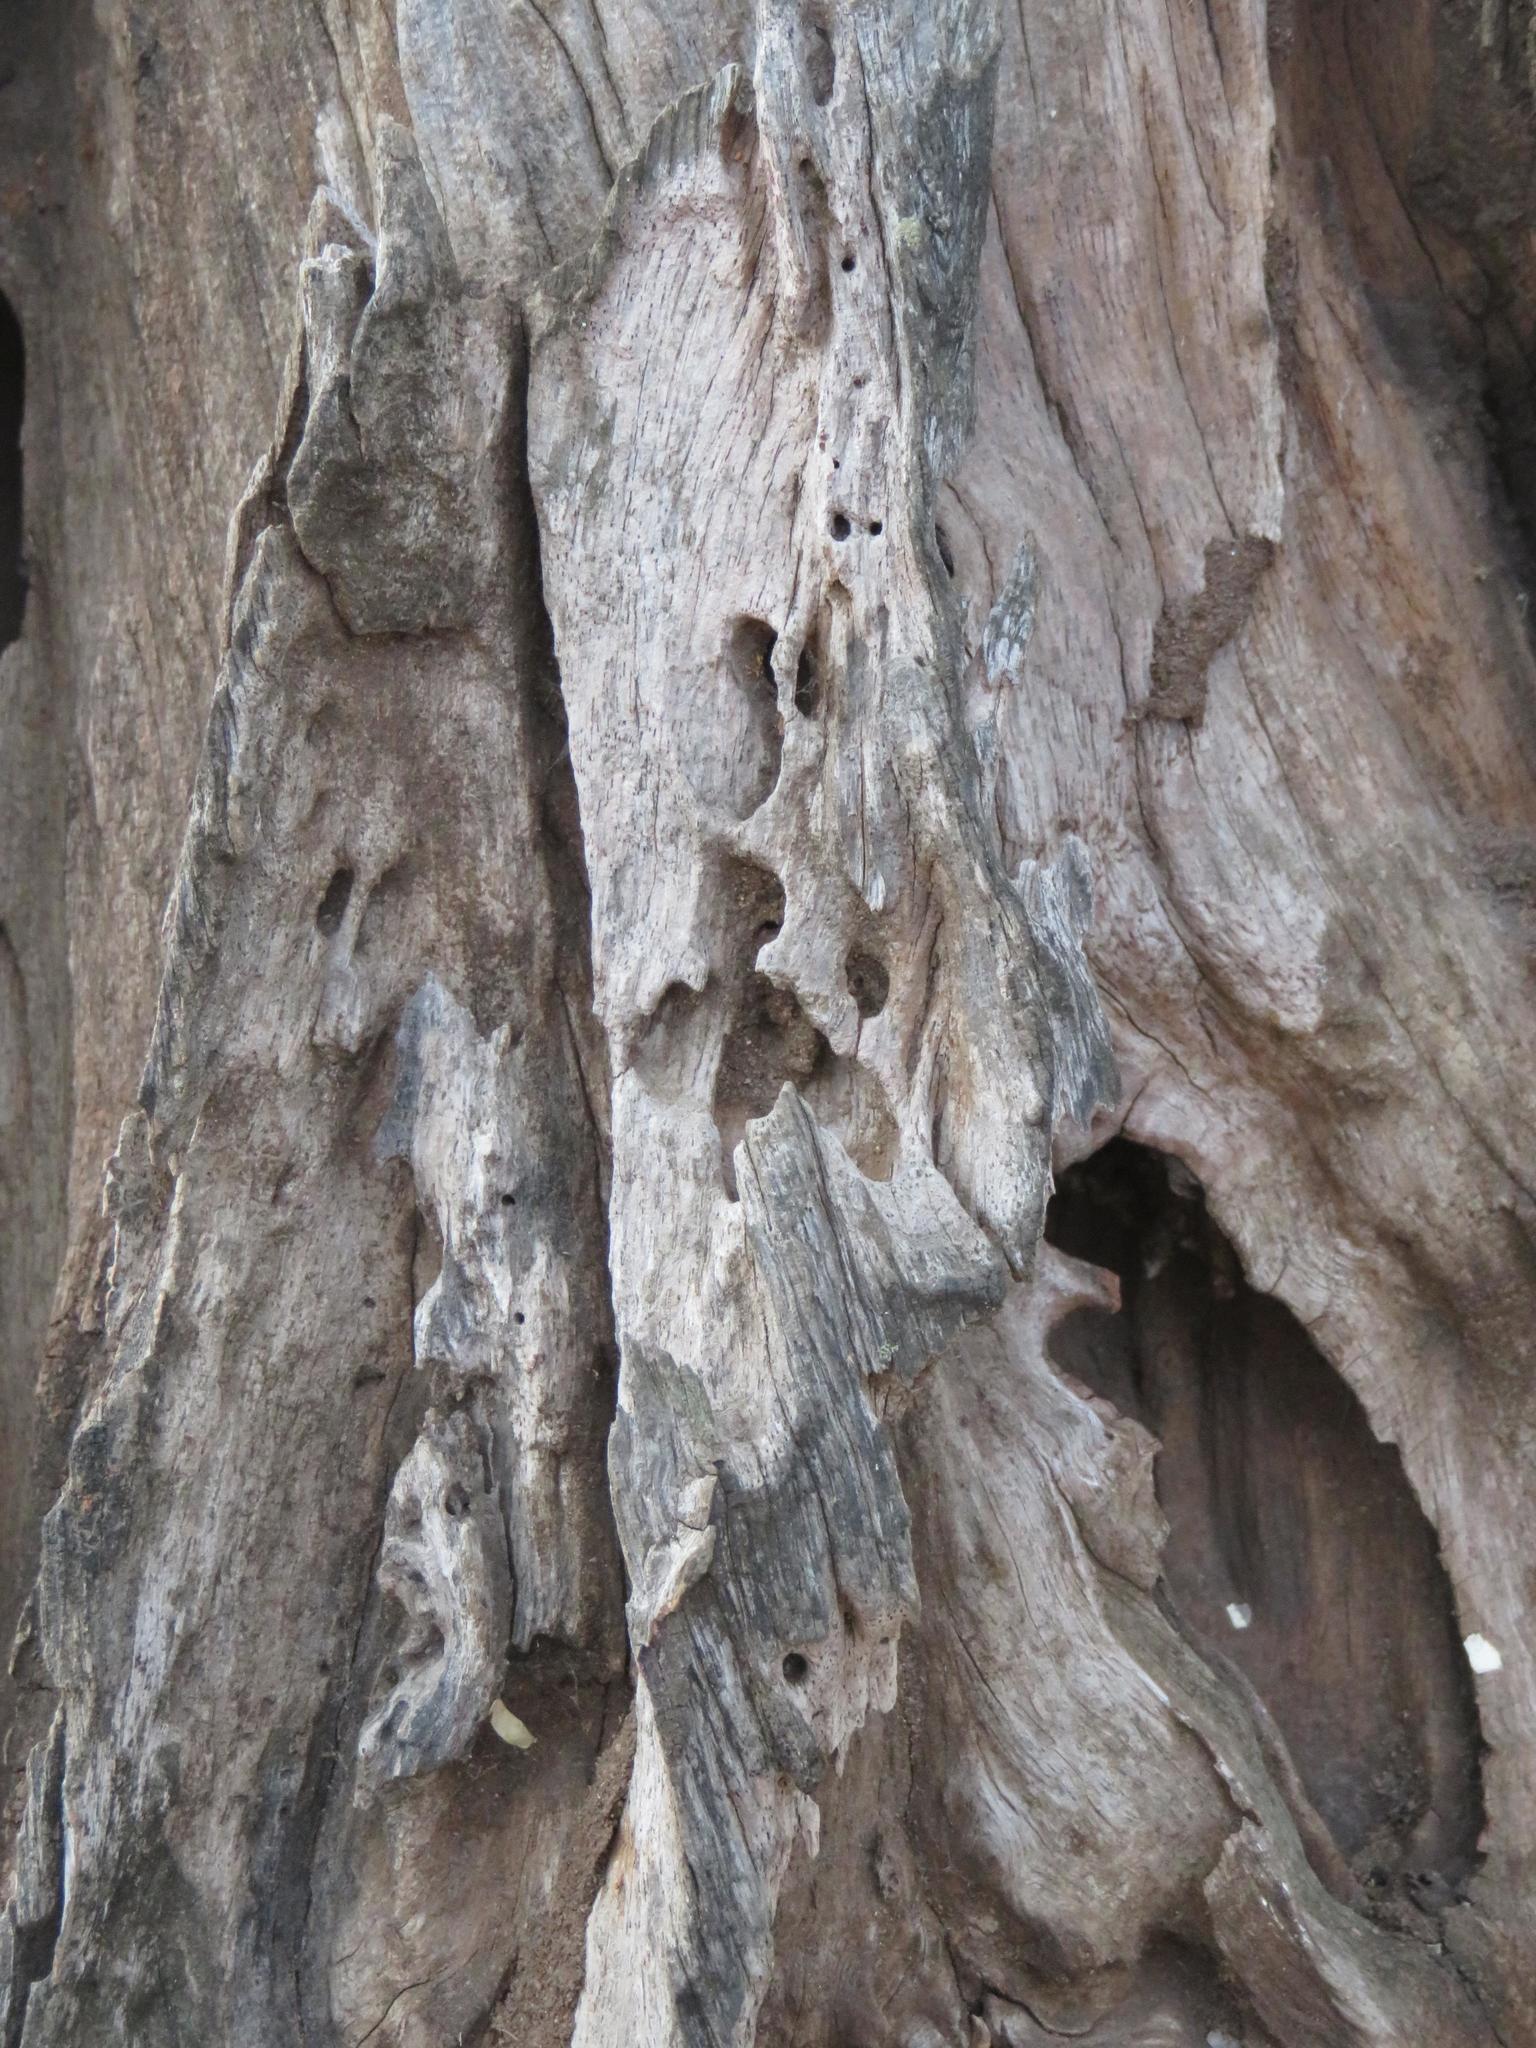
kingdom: Plantae
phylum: Tracheophyta
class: Magnoliopsida
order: Fabales
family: Fabaceae
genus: Cassia
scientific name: Cassia abbreviata
